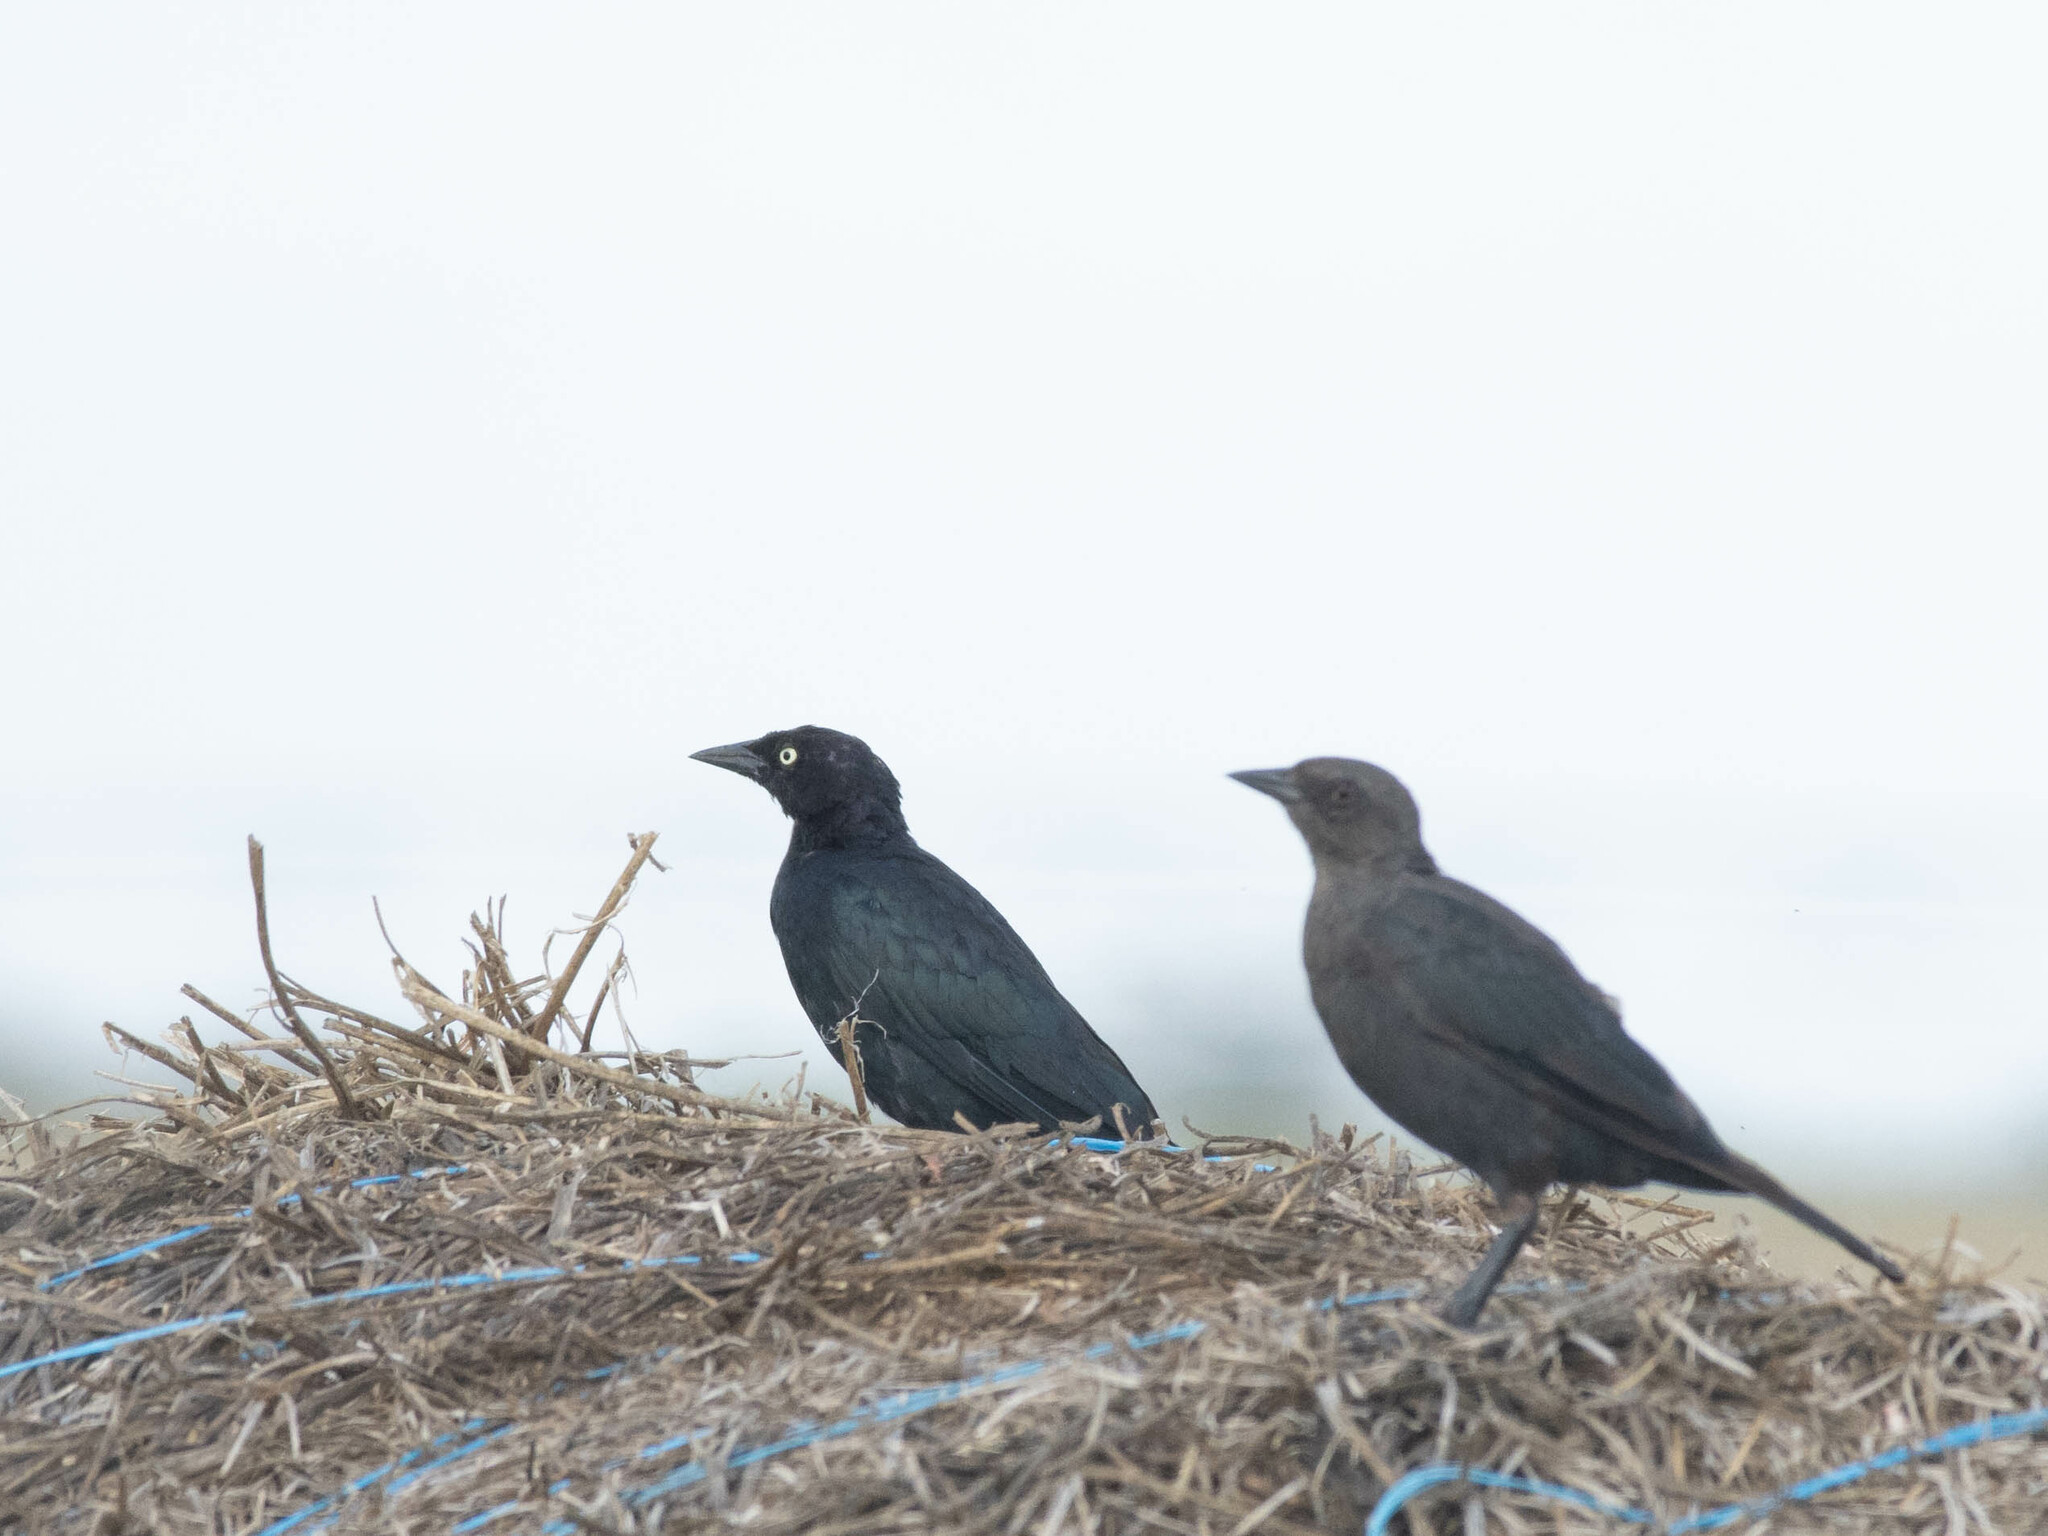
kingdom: Animalia
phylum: Chordata
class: Aves
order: Passeriformes
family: Icteridae
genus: Euphagus
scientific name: Euphagus cyanocephalus
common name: Brewer's blackbird
